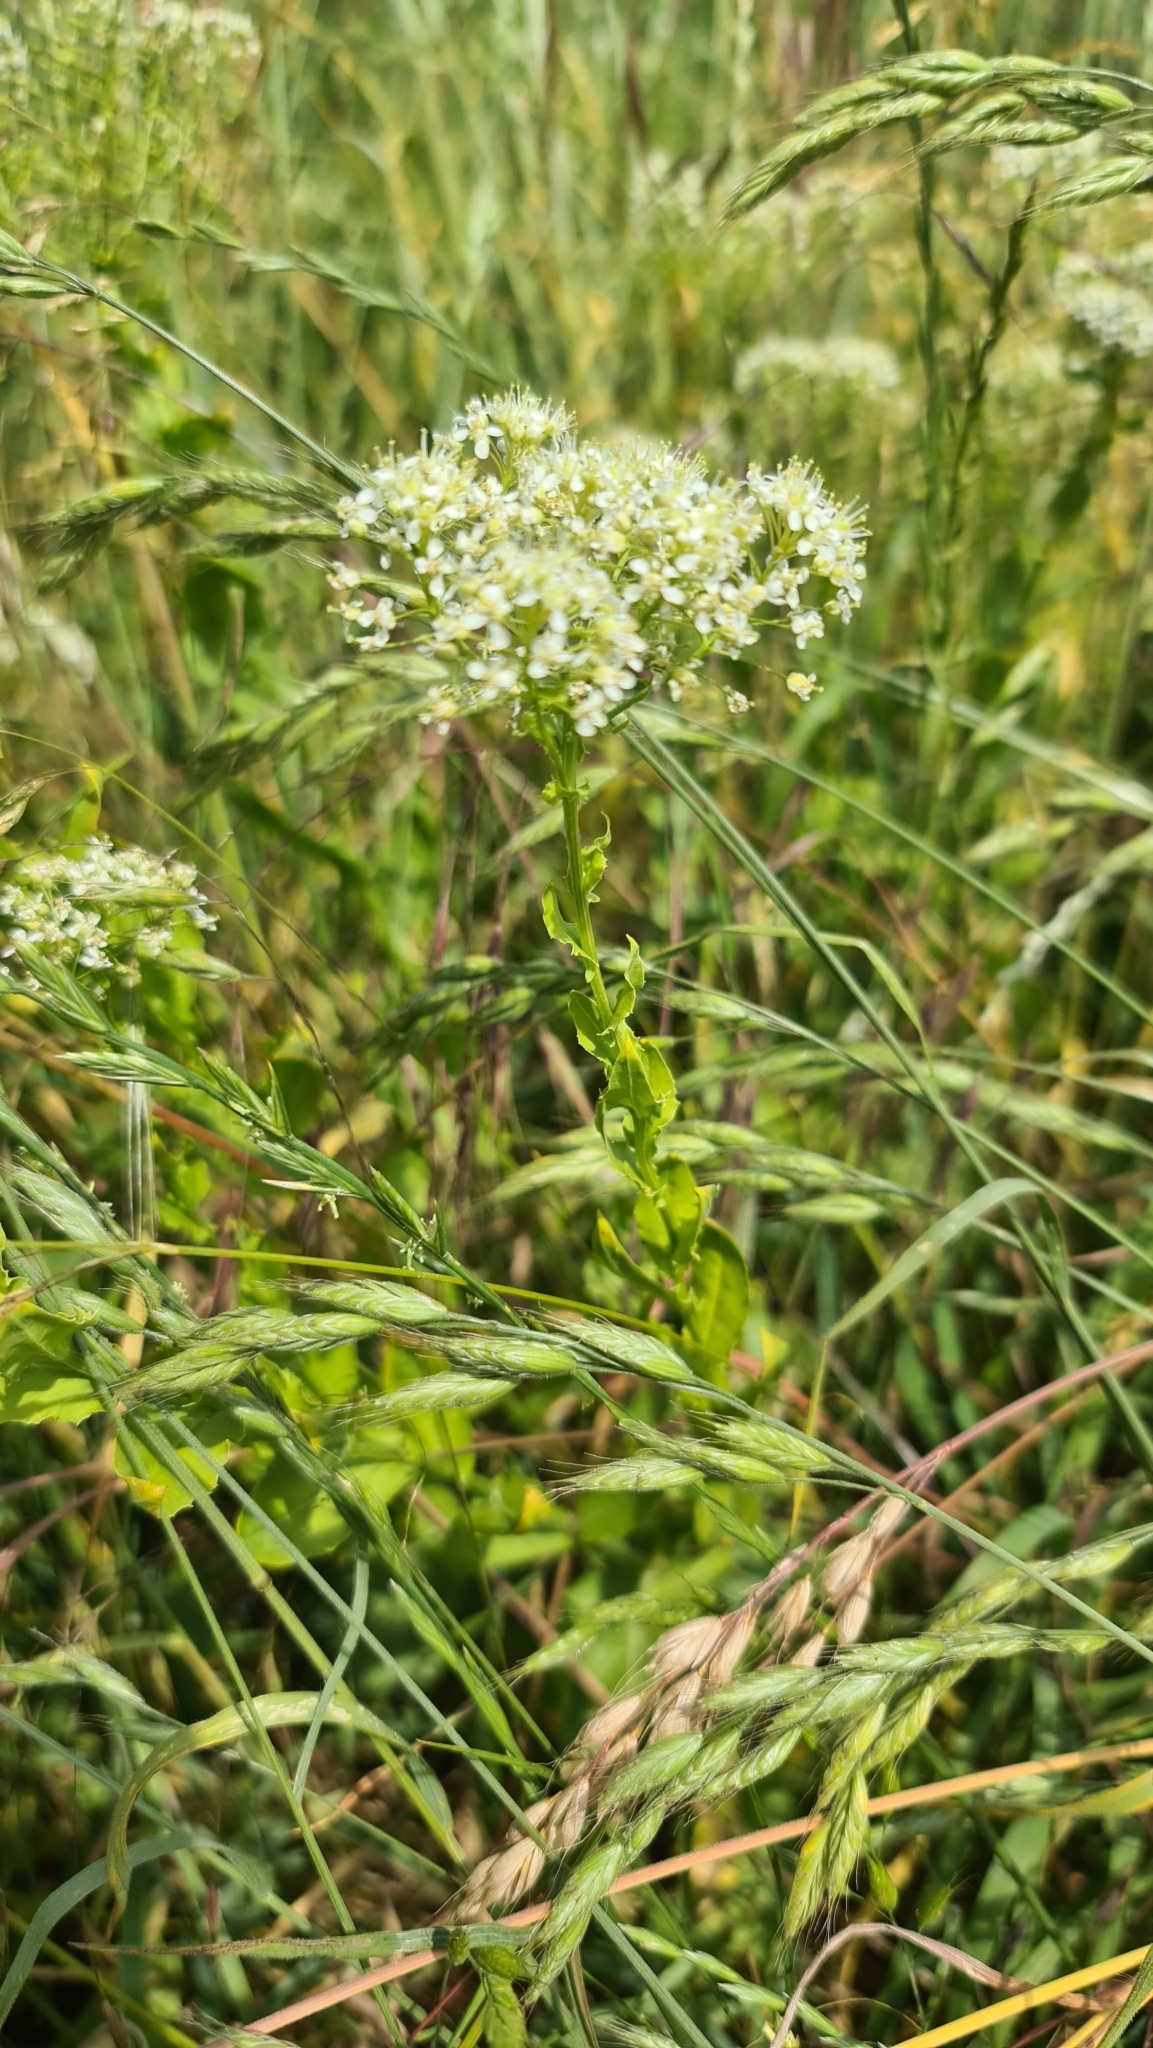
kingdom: Plantae
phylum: Tracheophyta
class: Magnoliopsida
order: Brassicales
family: Brassicaceae
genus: Lepidium
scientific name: Lepidium draba
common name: Hoary cress
